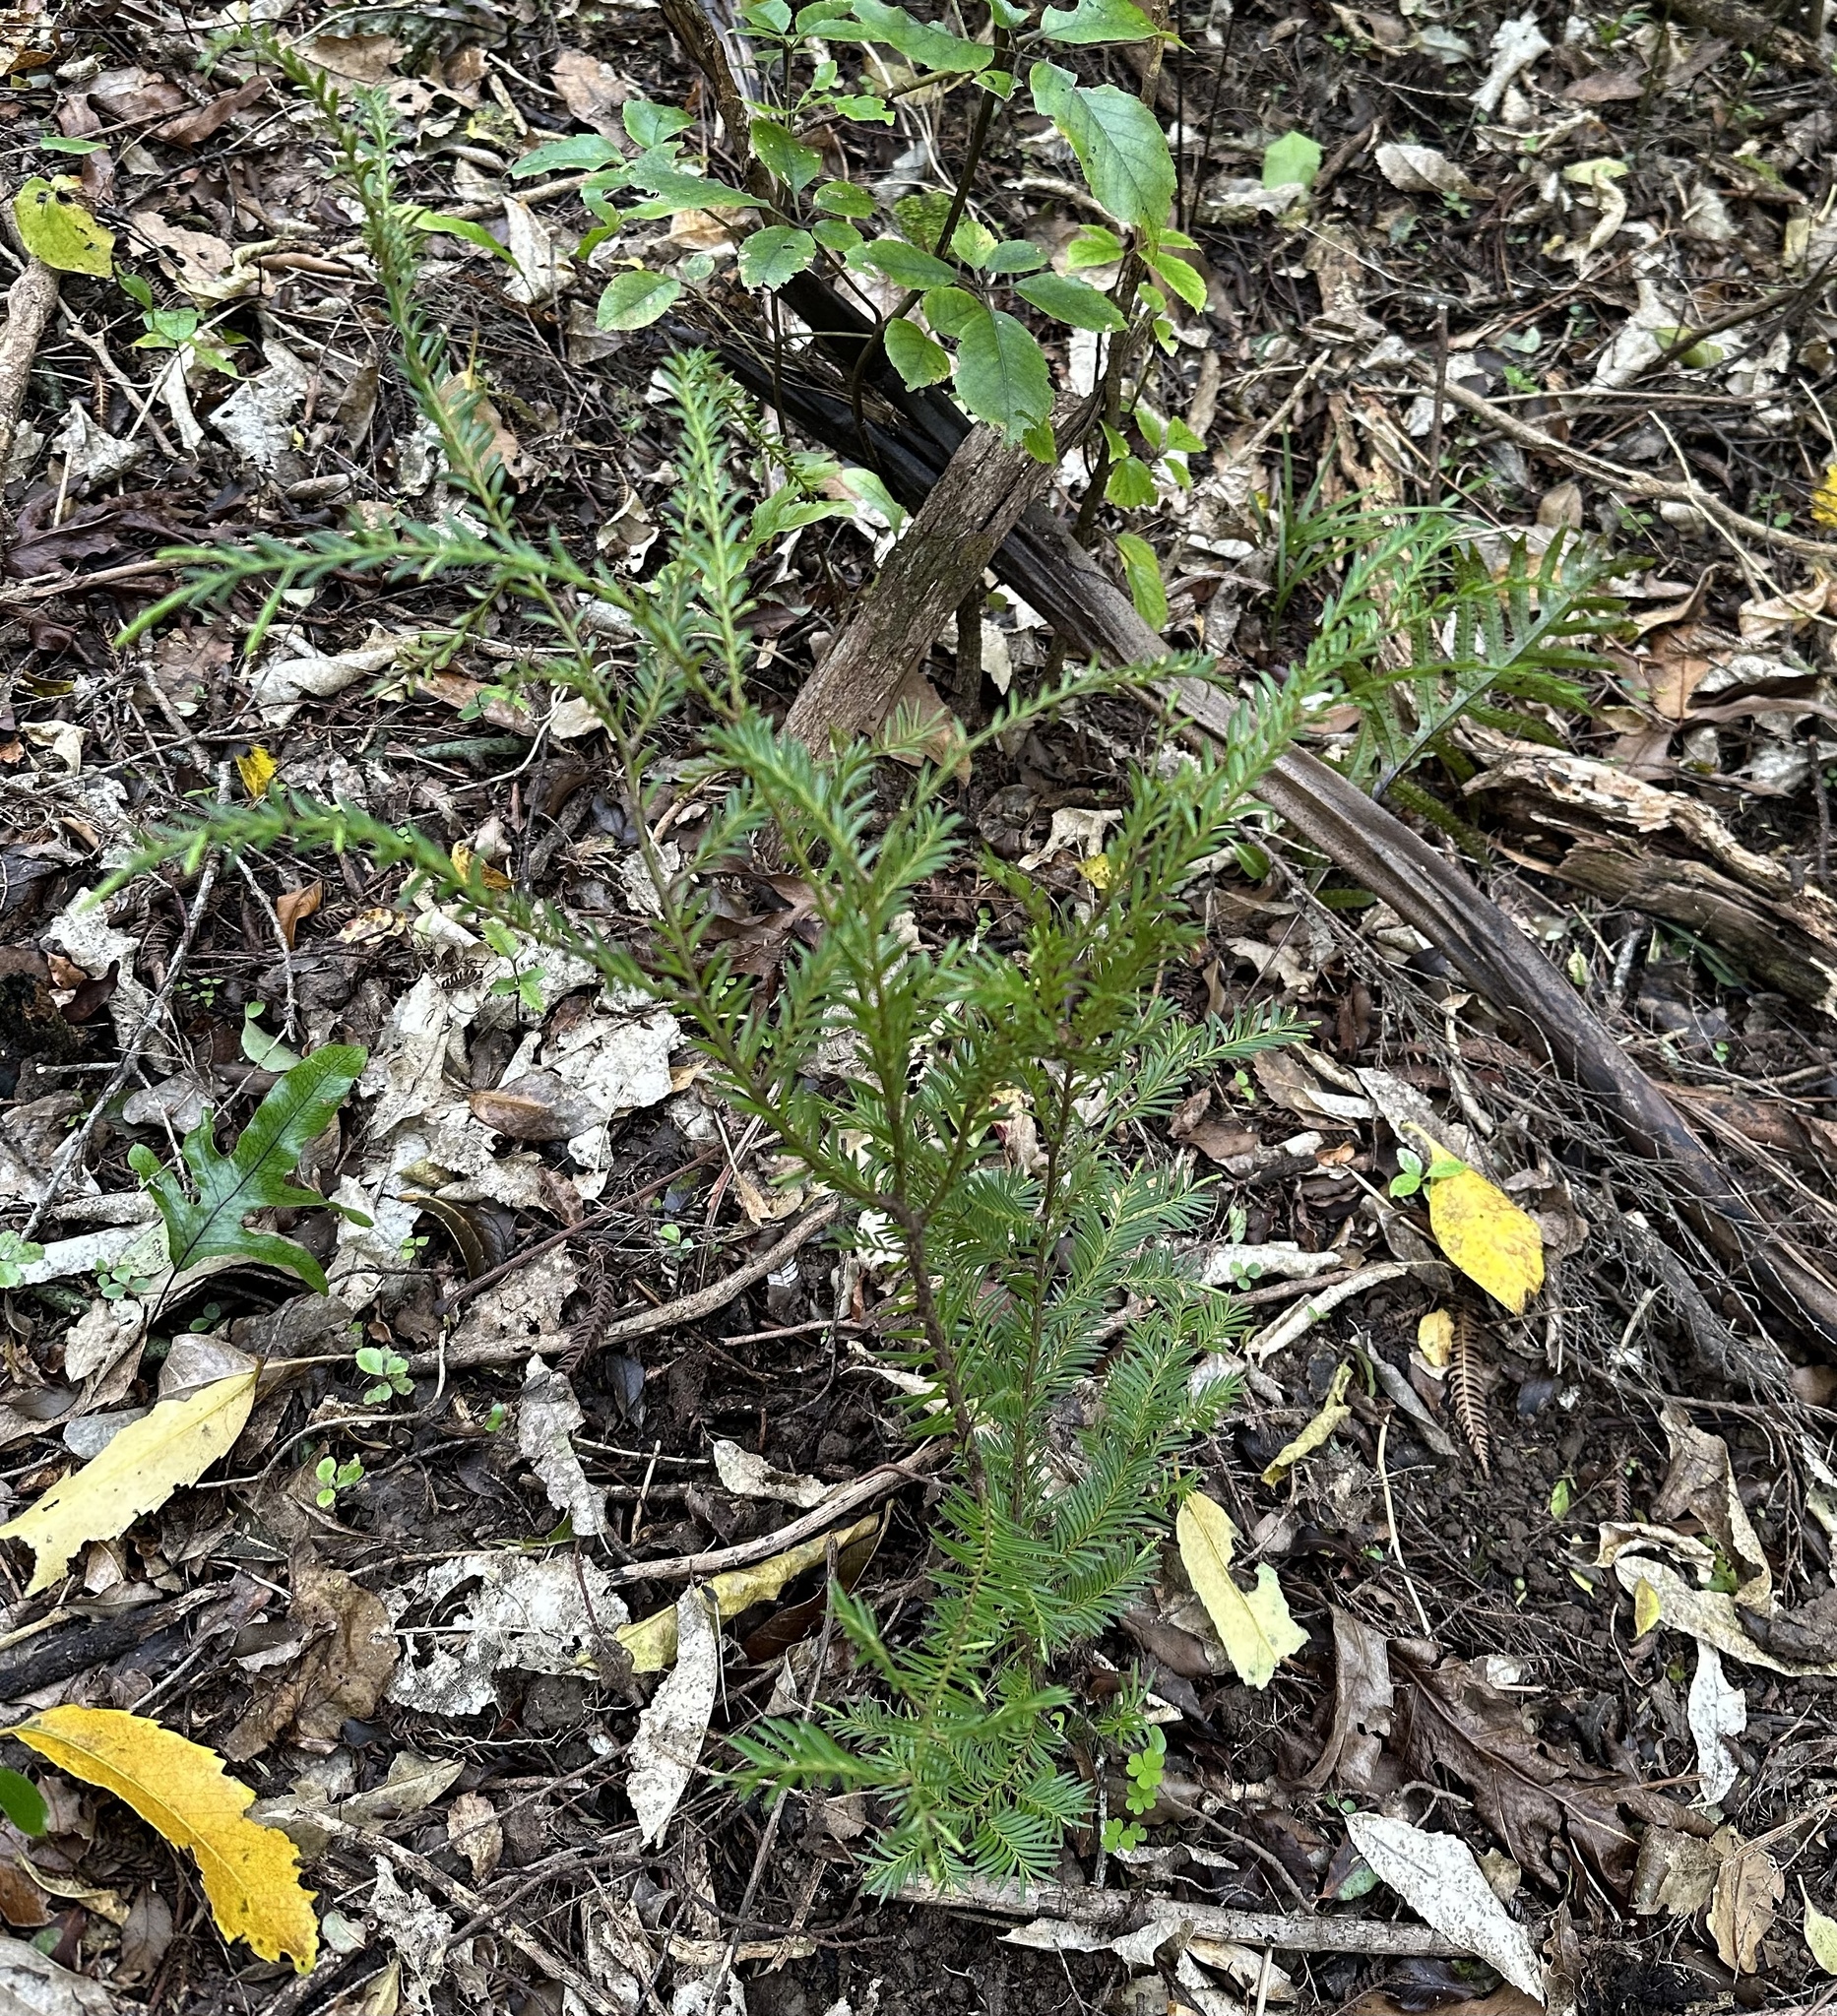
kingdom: Plantae
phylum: Tracheophyta
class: Pinopsida
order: Pinales
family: Podocarpaceae
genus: Prumnopitys
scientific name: Prumnopitys ferruginea
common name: Brown pine
